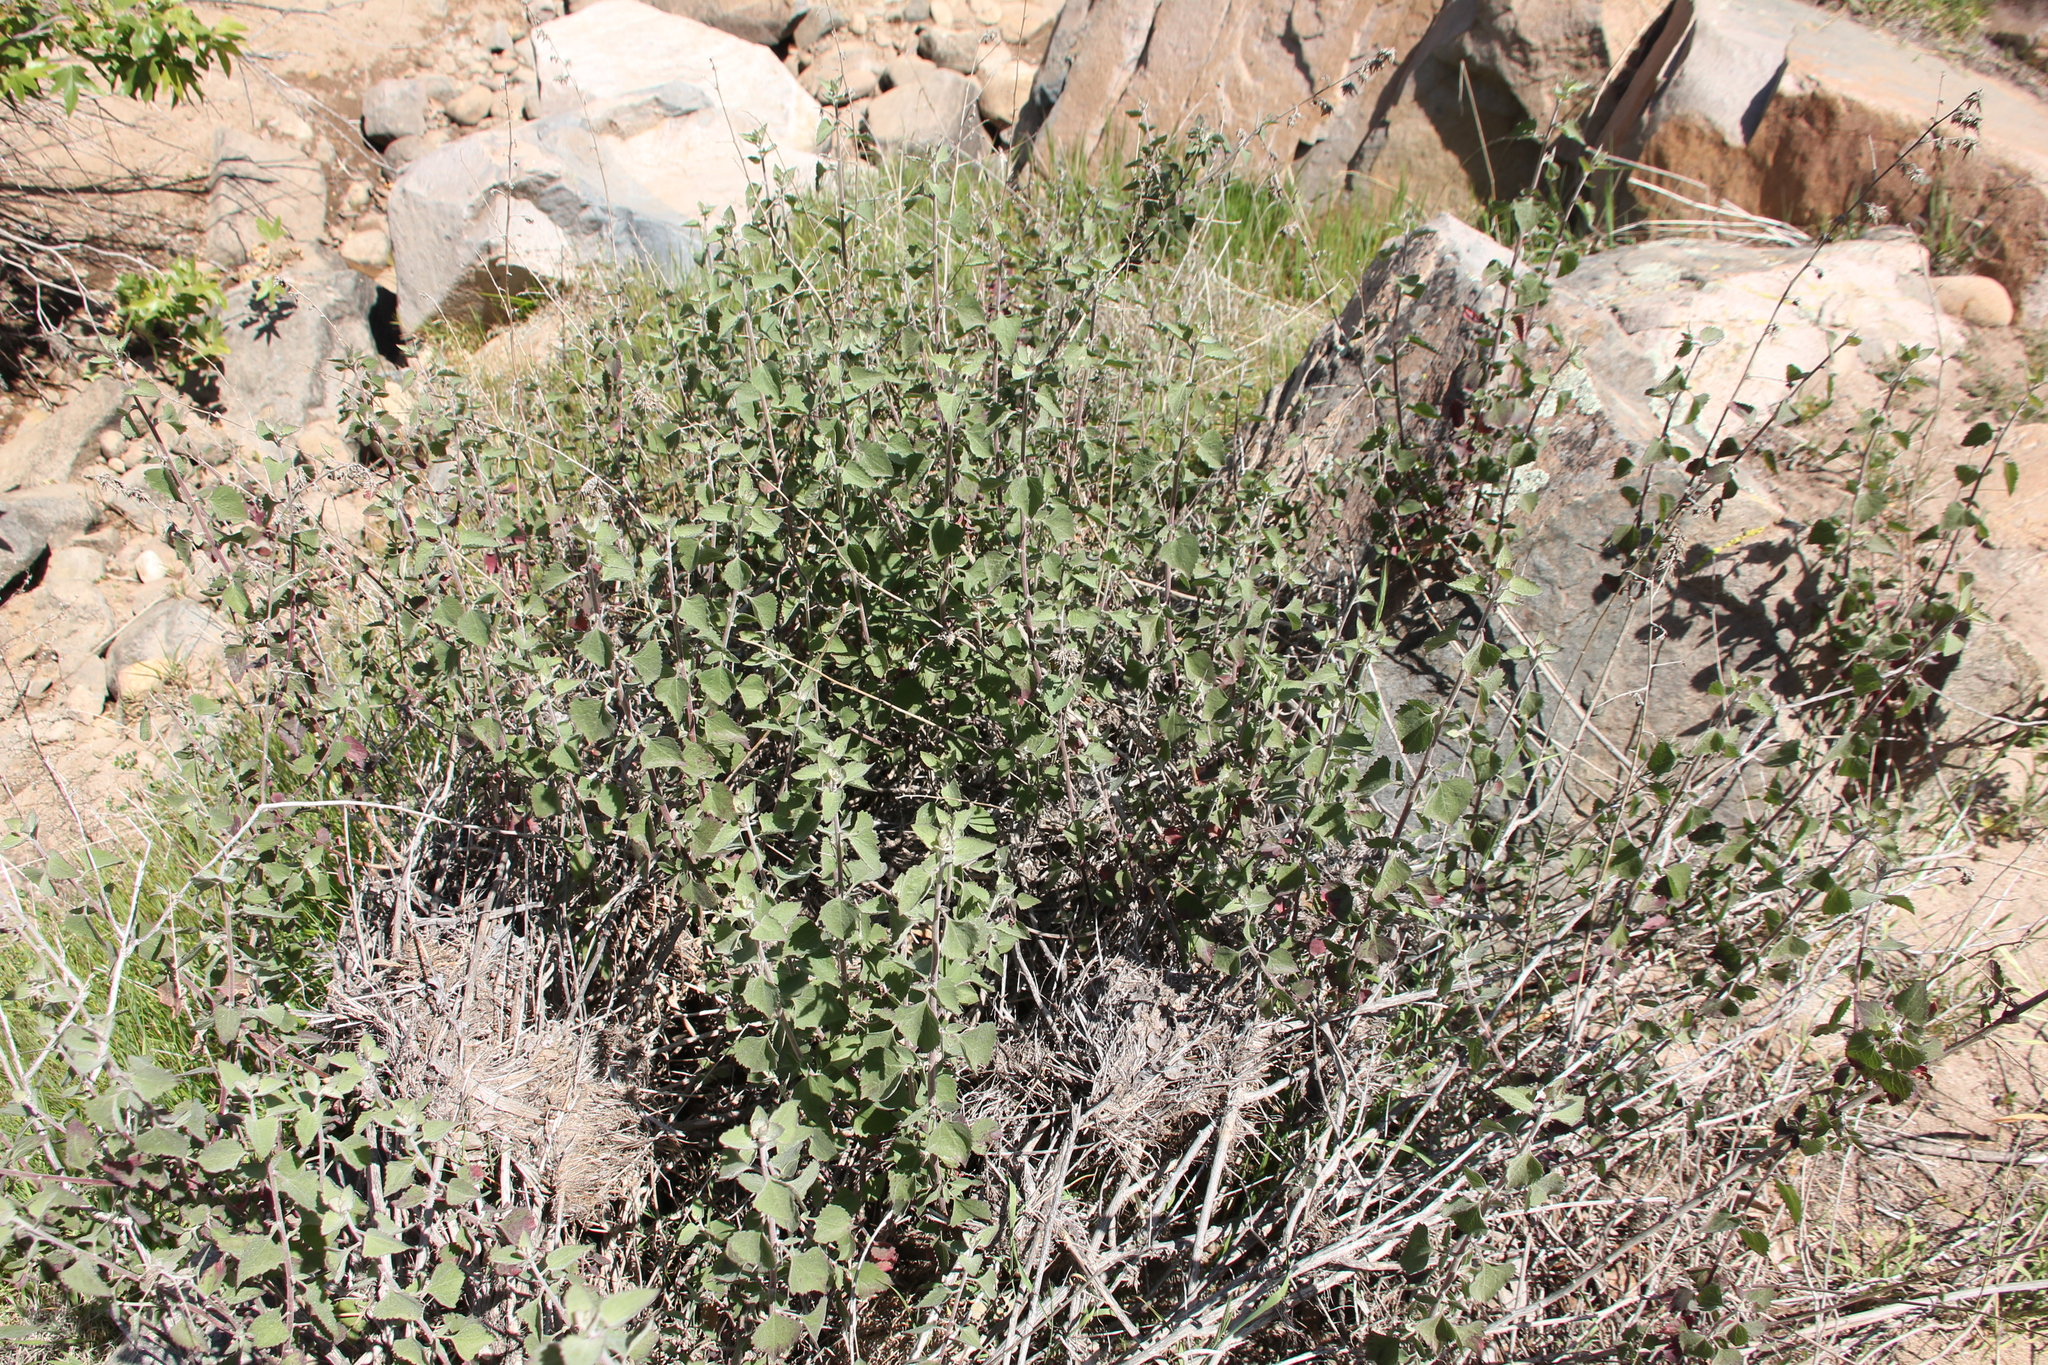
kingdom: Plantae
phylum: Tracheophyta
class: Magnoliopsida
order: Asterales
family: Asteraceae
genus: Brickellia
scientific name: Brickellia californica
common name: California brickellbush
